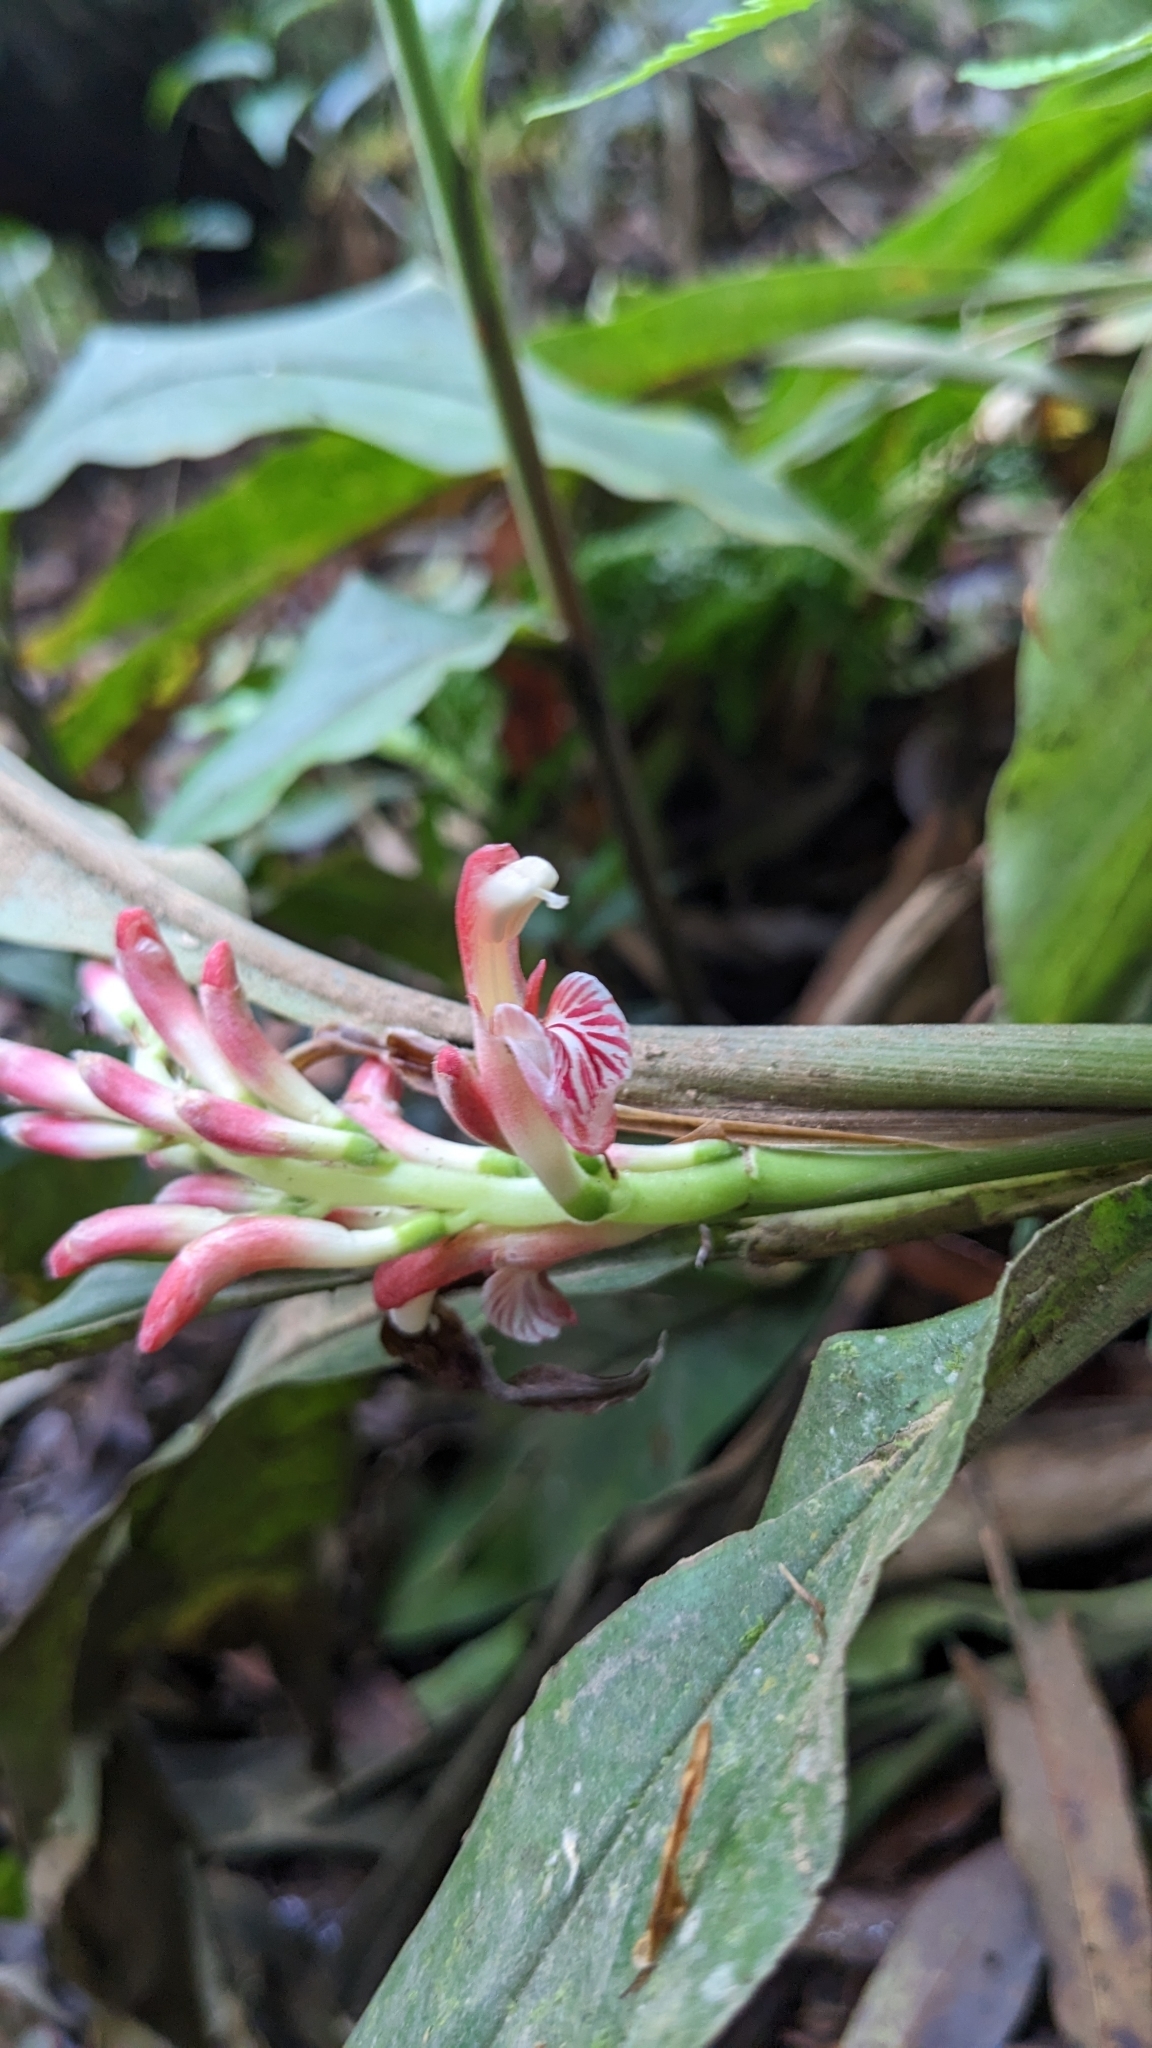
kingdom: Plantae
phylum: Tracheophyta
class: Liliopsida
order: Zingiberales
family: Zingiberaceae
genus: Alpinia
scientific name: Alpinia japonica
